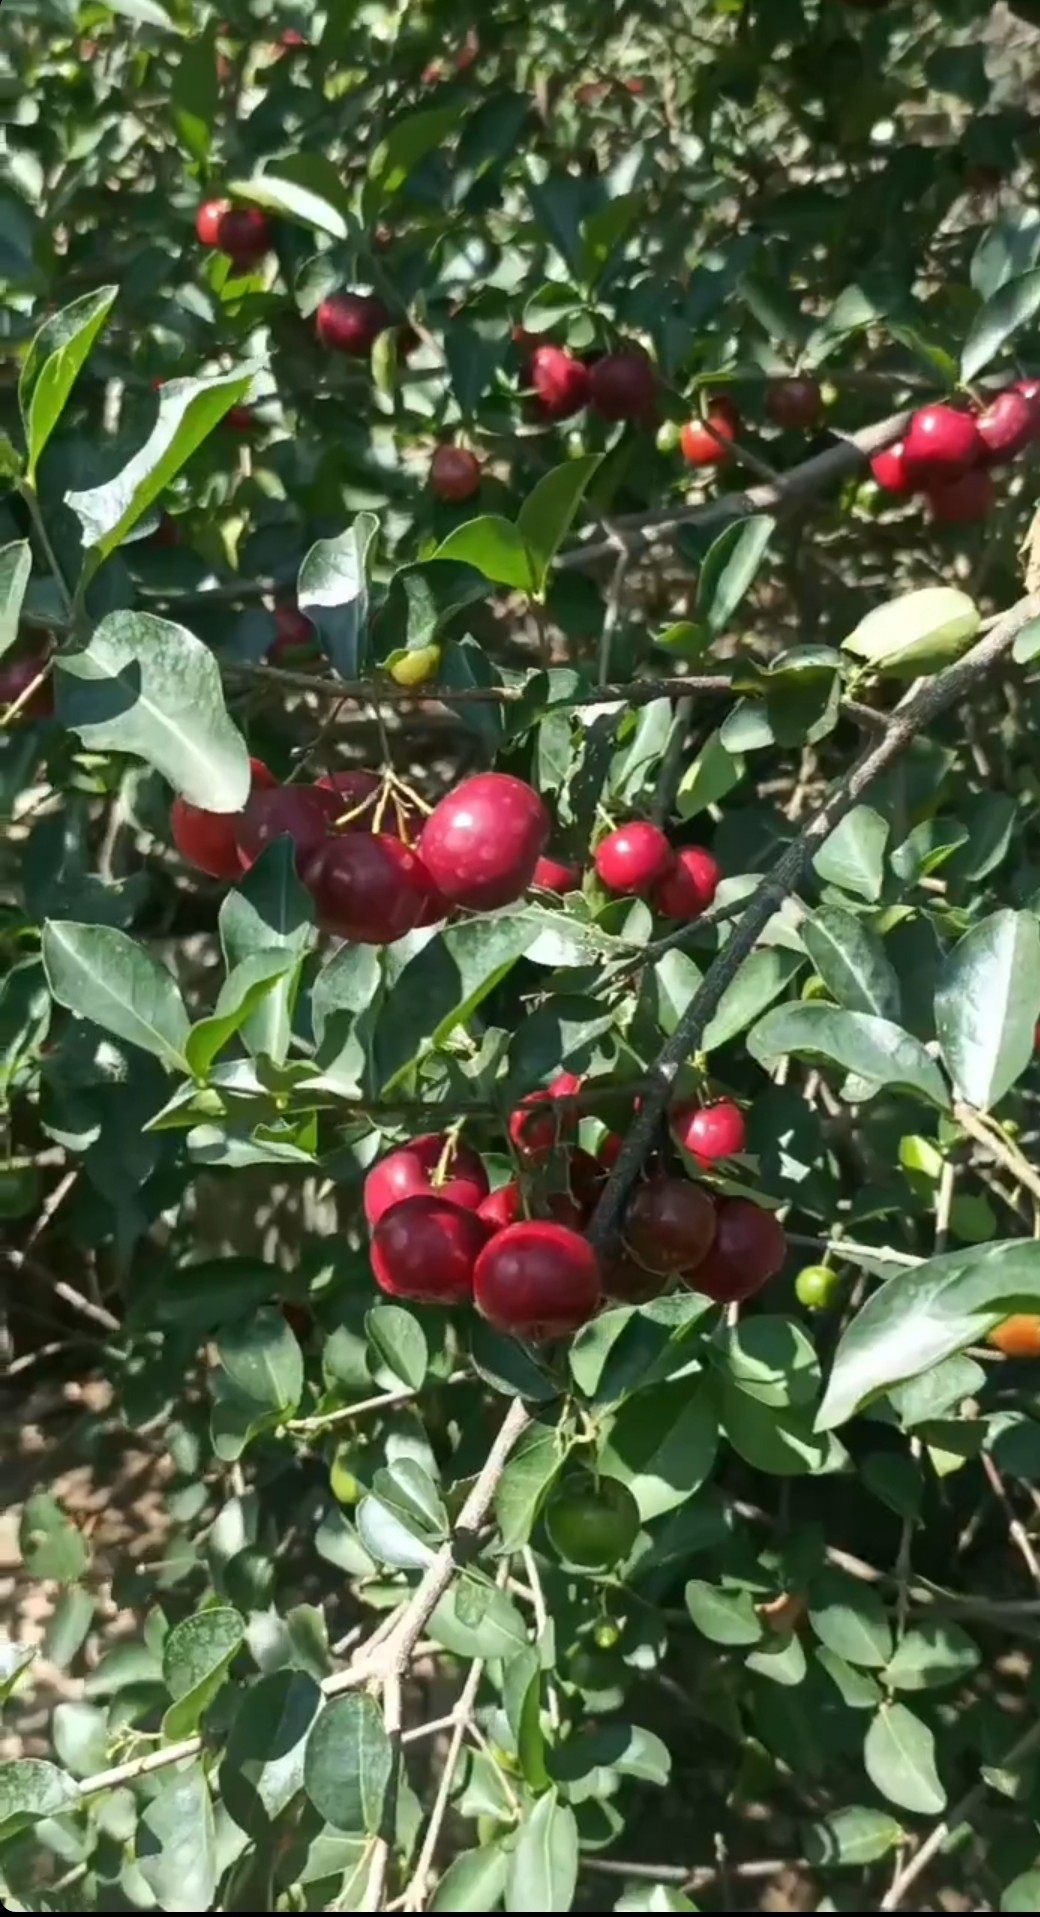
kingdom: Plantae
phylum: Tracheophyta
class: Magnoliopsida
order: Malpighiales
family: Malpighiaceae
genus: Malpighia
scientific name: Malpighia emarginata
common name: Barbados cherry
